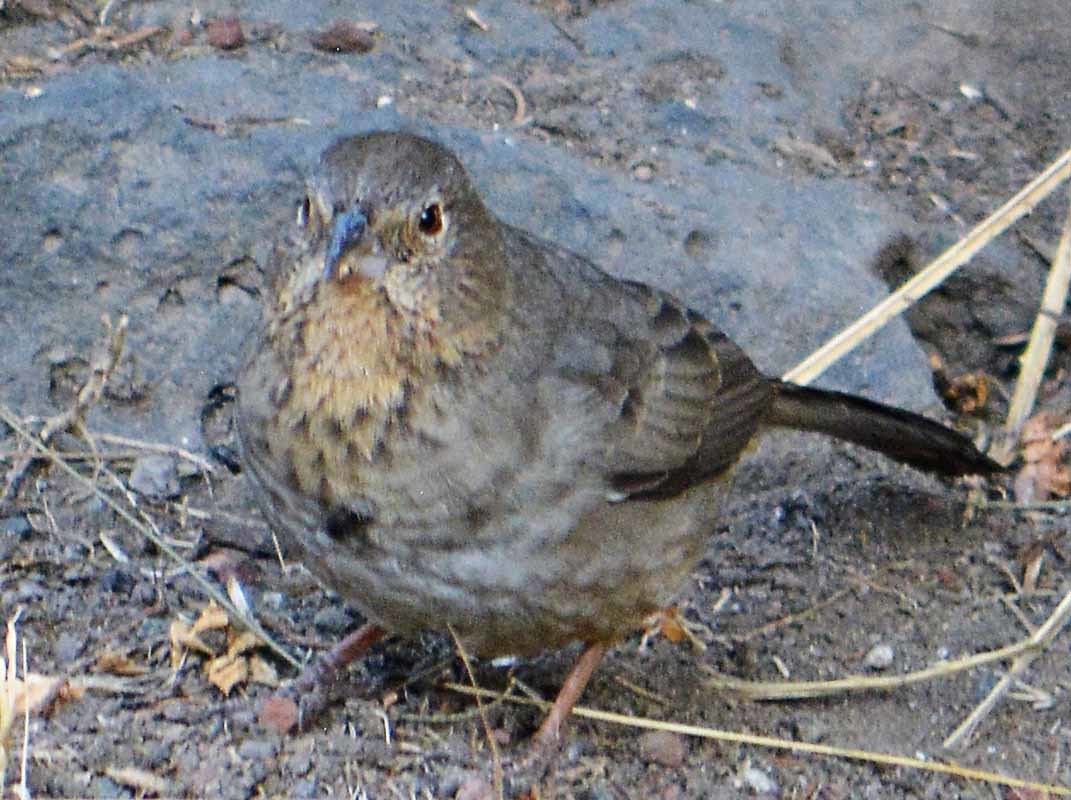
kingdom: Animalia
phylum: Chordata
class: Aves
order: Passeriformes
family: Passerellidae
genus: Melozone
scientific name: Melozone fusca
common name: Canyon towhee
